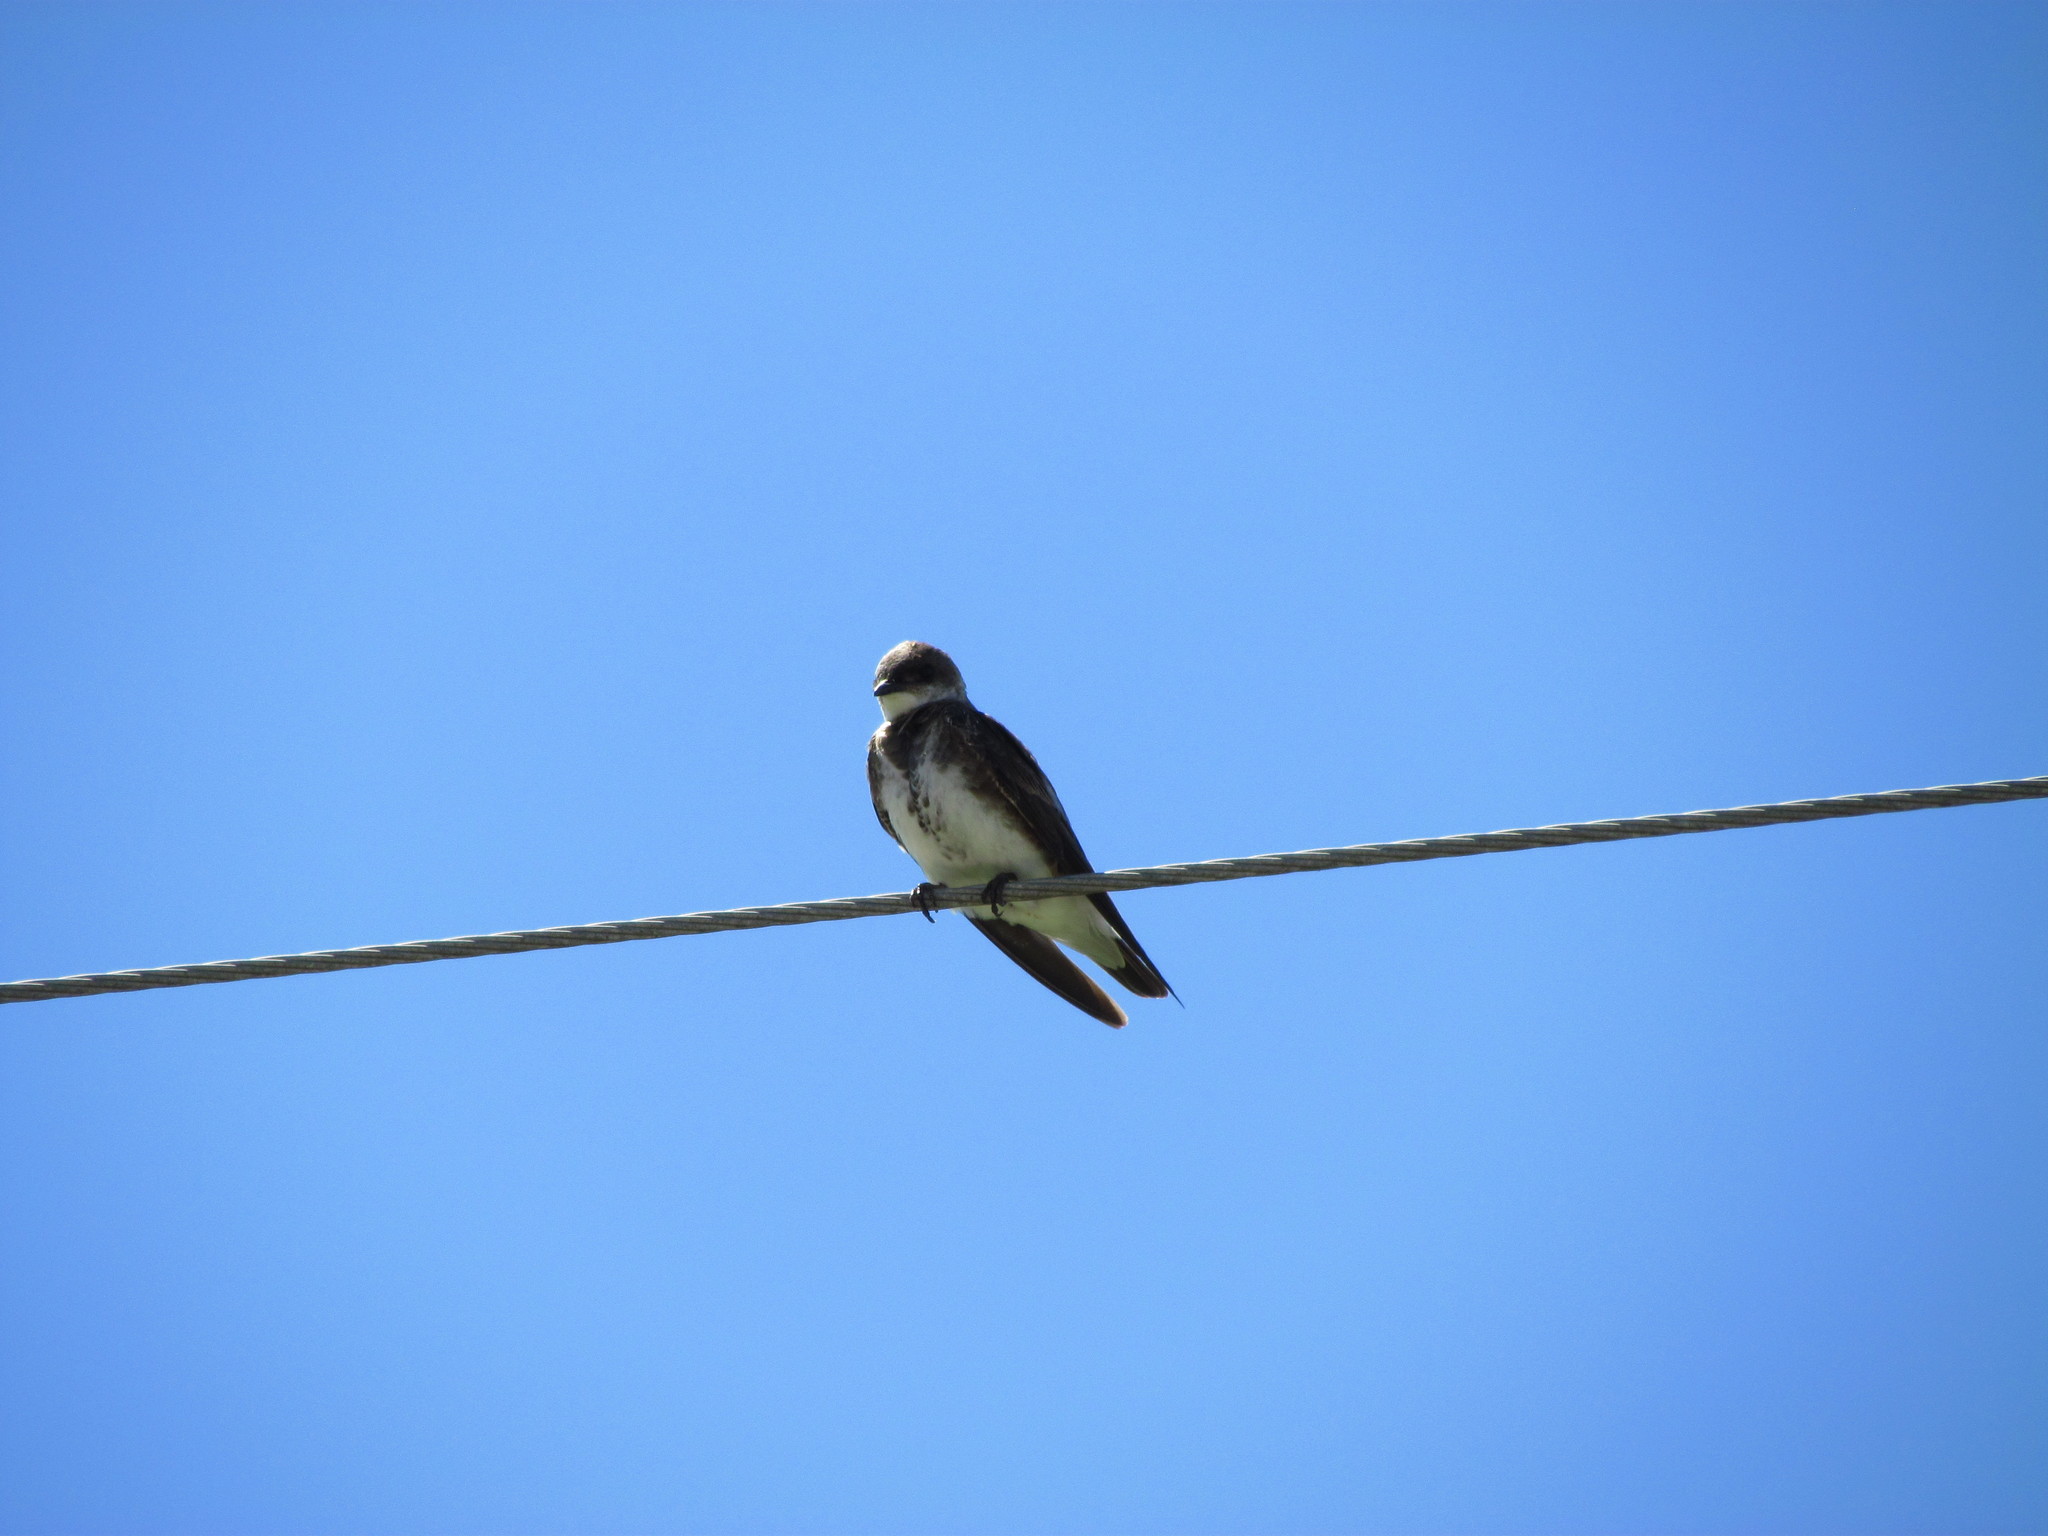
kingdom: Animalia
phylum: Chordata
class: Aves
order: Passeriformes
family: Hirundinidae
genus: Progne
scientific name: Progne tapera
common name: Brown-chested martin
